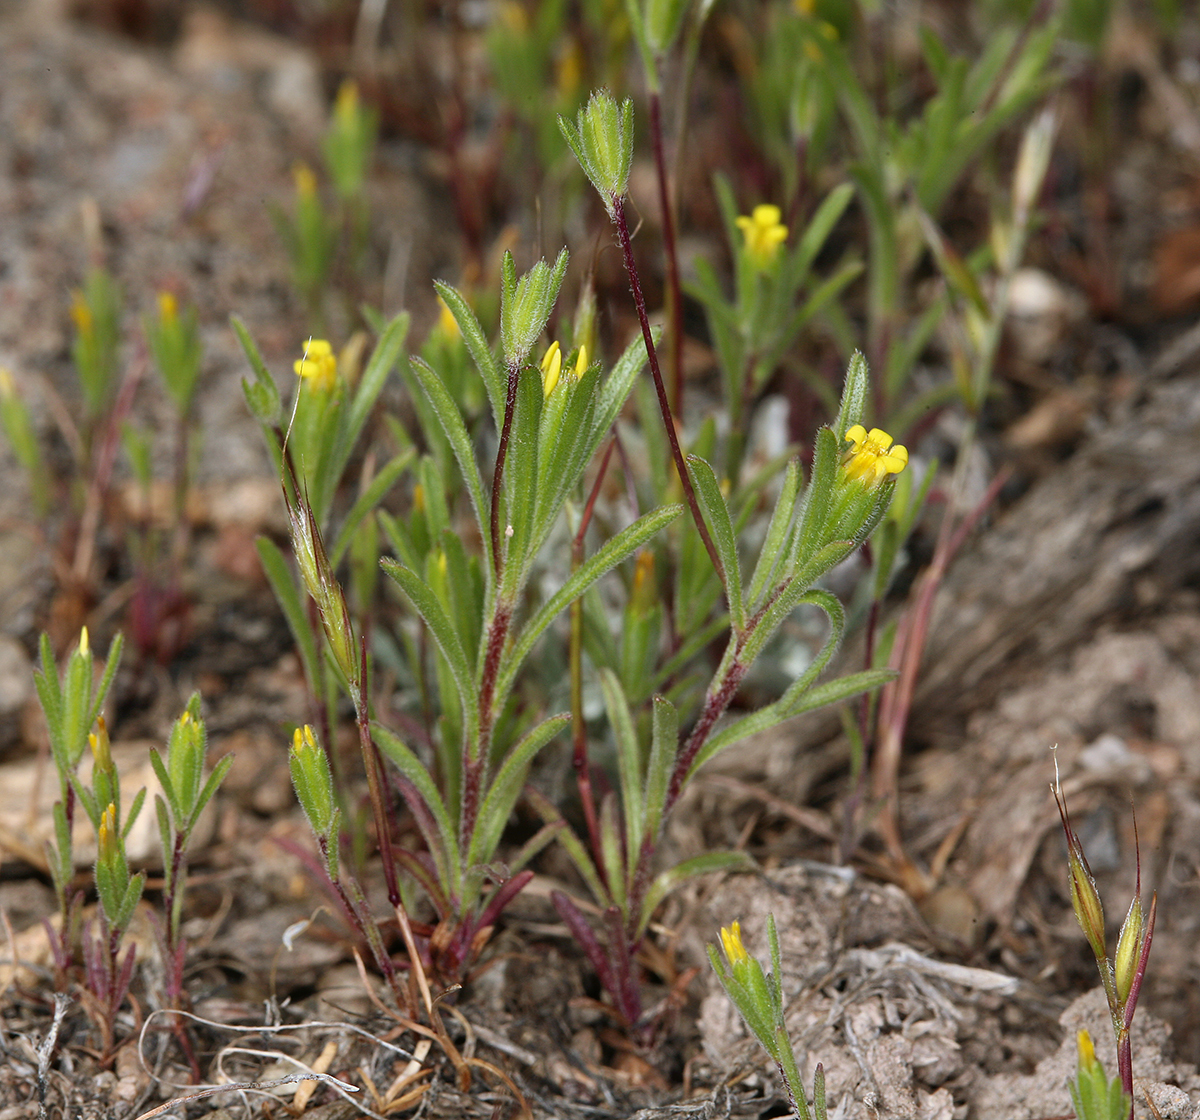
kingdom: Plantae
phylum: Tracheophyta
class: Magnoliopsida
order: Asterales
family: Asteraceae
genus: Rigiopappus
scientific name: Rigiopappus leptocladus
